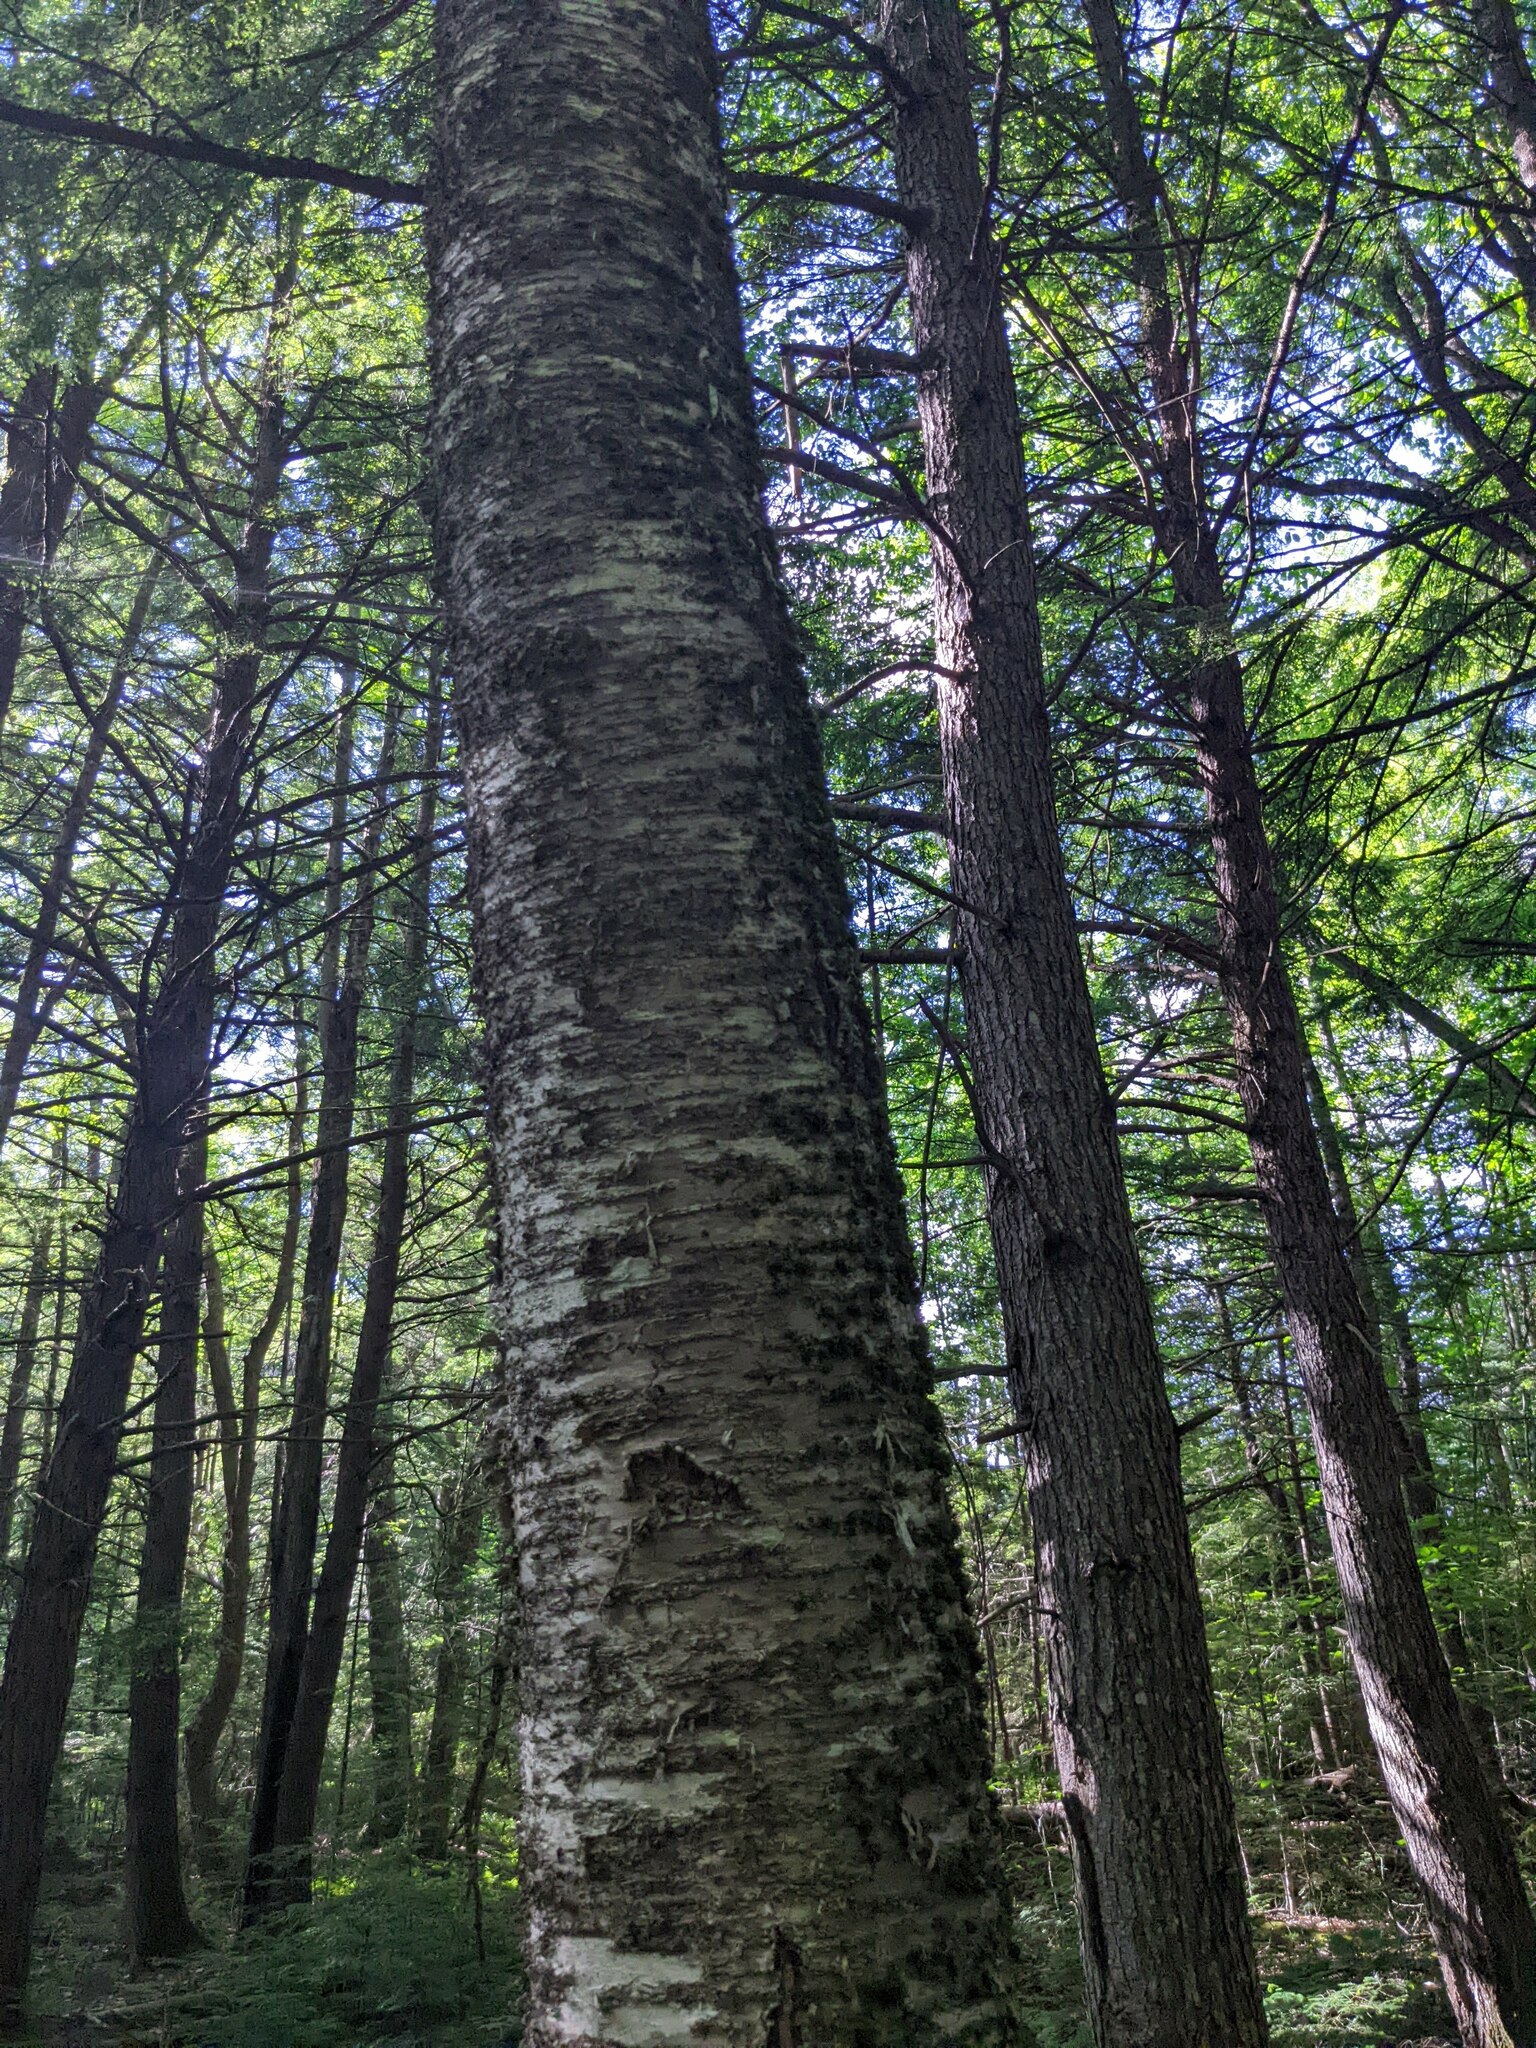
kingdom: Plantae
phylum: Tracheophyta
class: Magnoliopsida
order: Fagales
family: Betulaceae
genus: Betula
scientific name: Betula alleghaniensis
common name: Yellow birch
